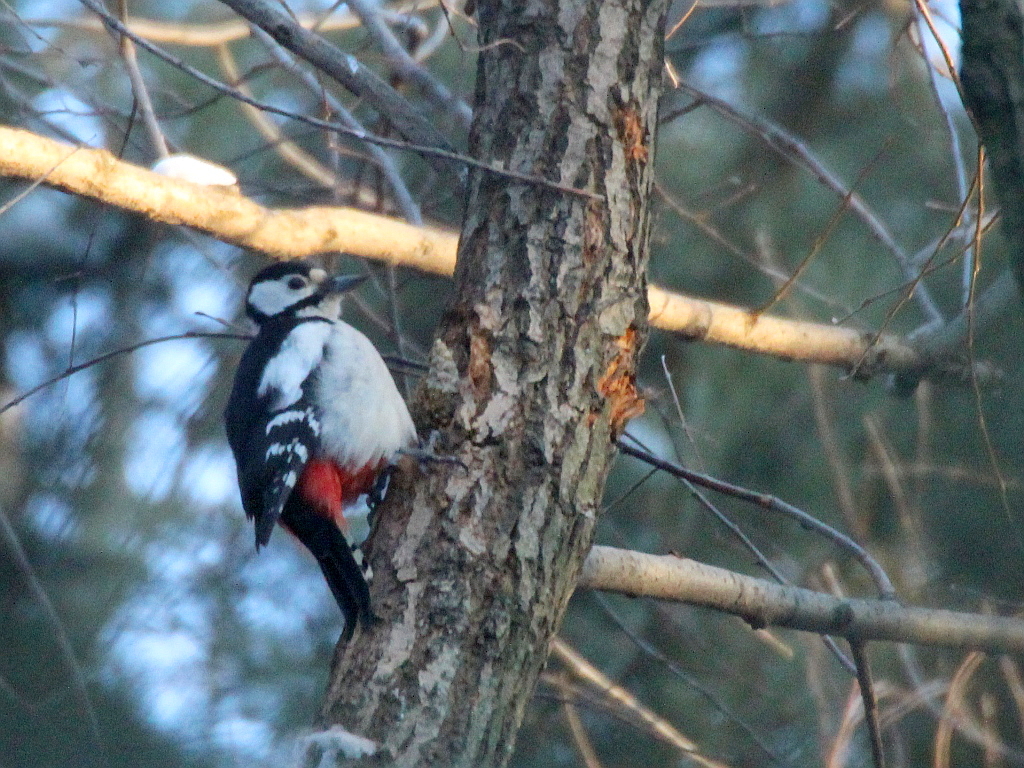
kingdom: Animalia
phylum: Chordata
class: Aves
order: Piciformes
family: Picidae
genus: Dendrocopos
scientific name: Dendrocopos major
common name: Great spotted woodpecker
